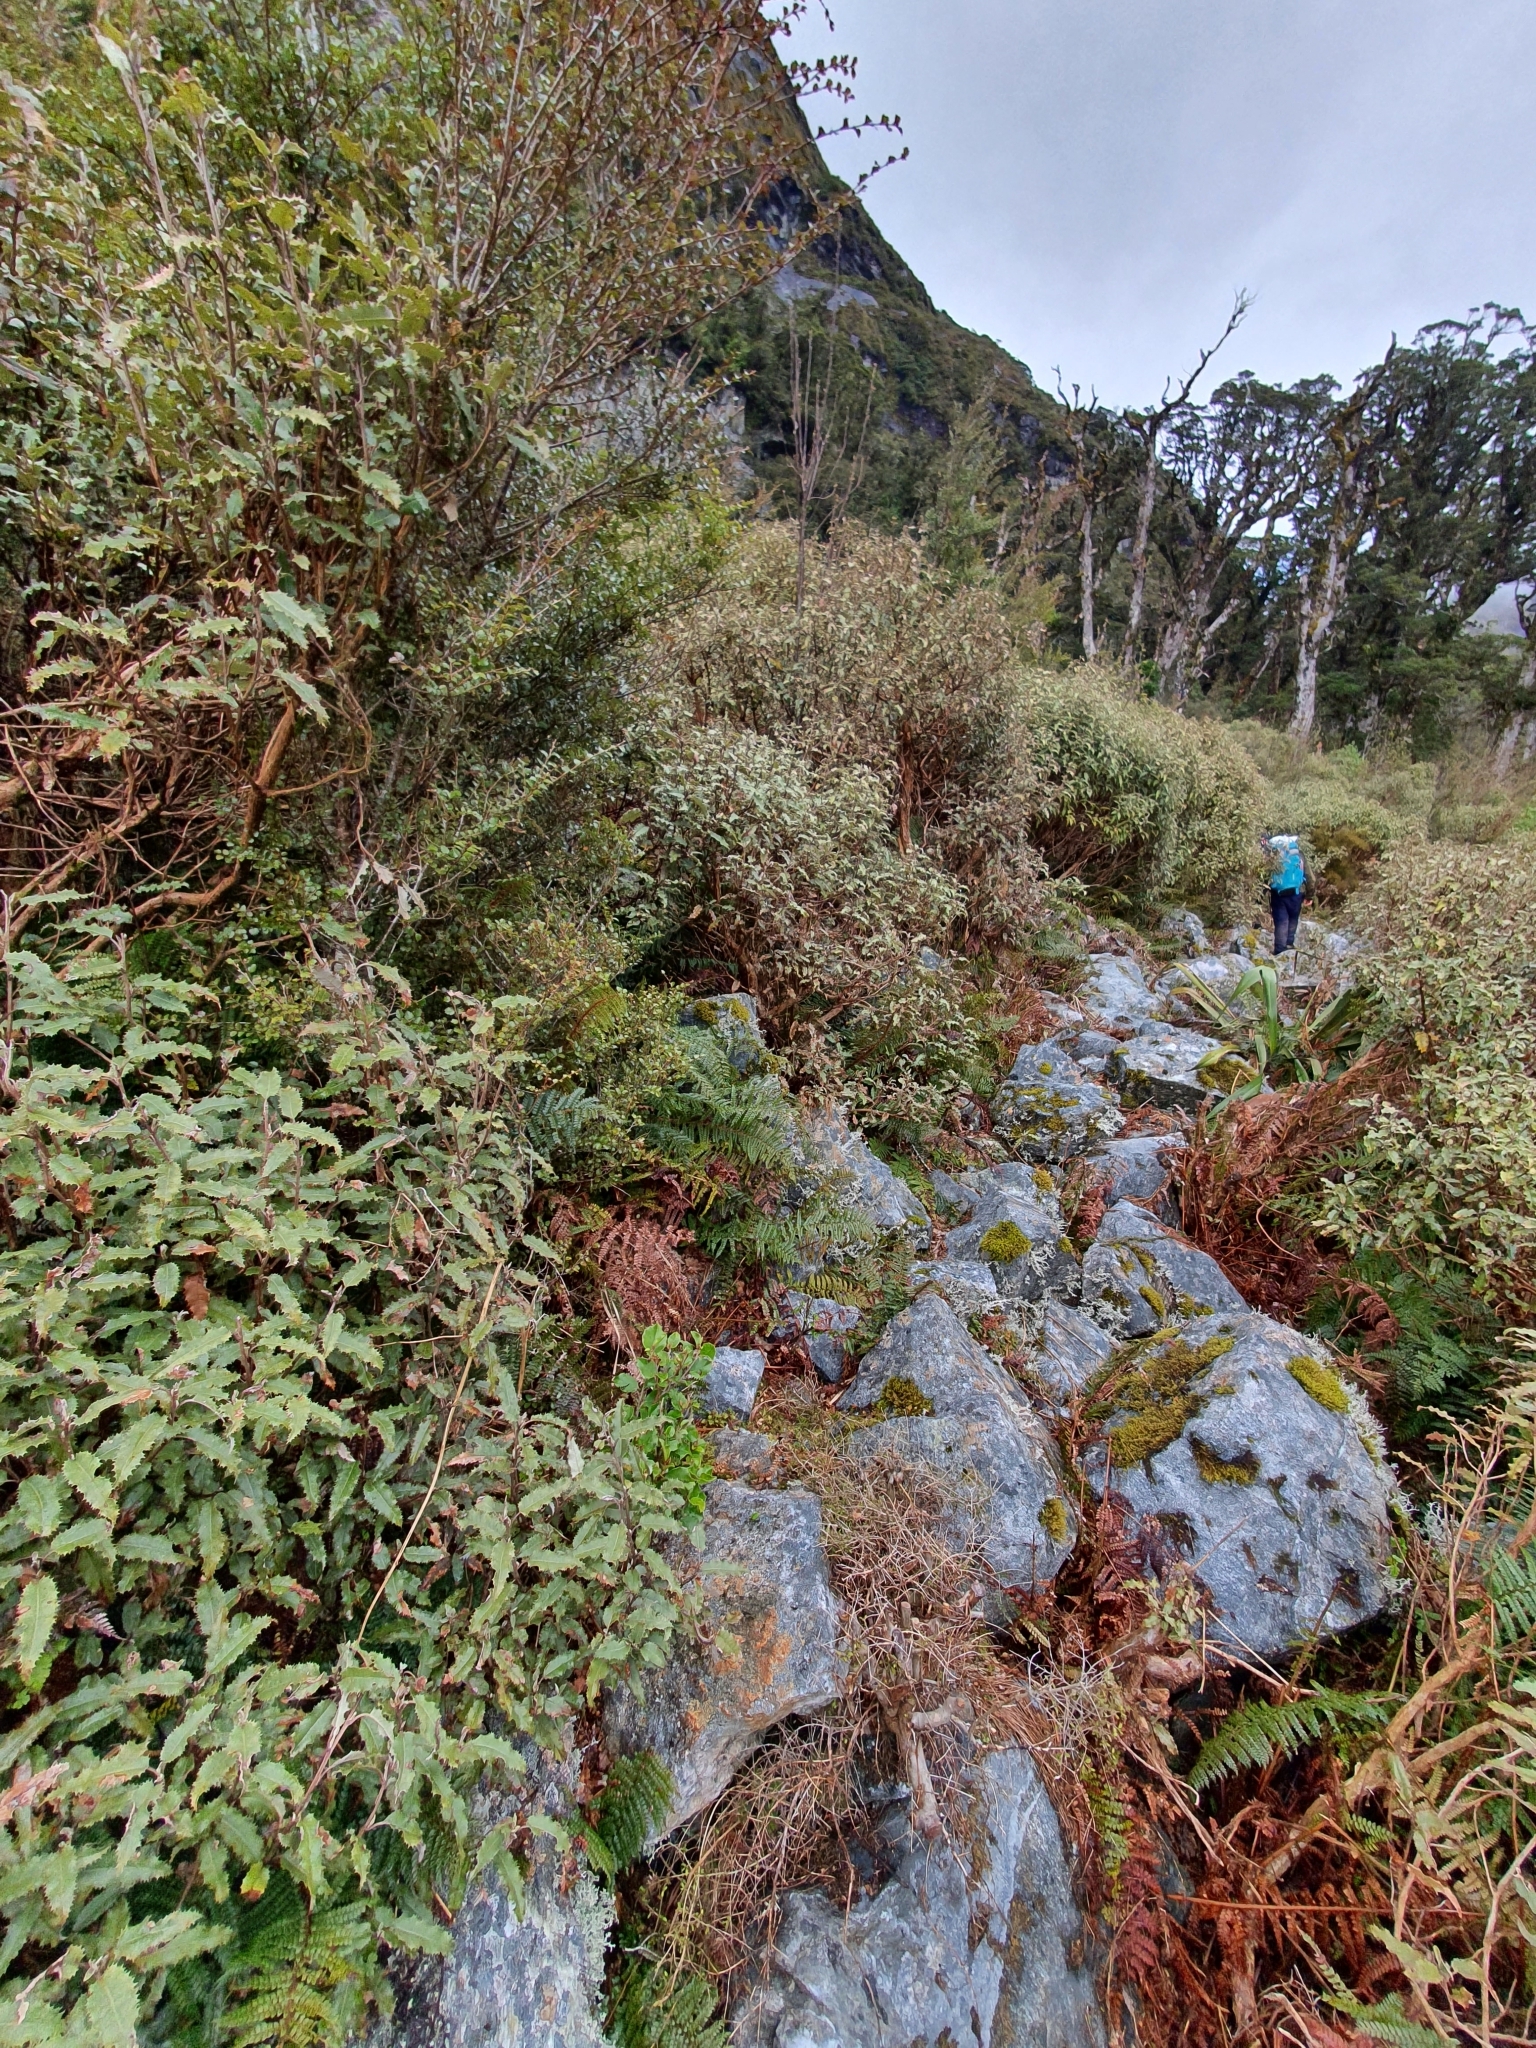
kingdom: Plantae
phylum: Tracheophyta
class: Magnoliopsida
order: Asterales
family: Asteraceae
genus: Olearia
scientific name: Olearia ilicifolia
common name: Maori-holly
